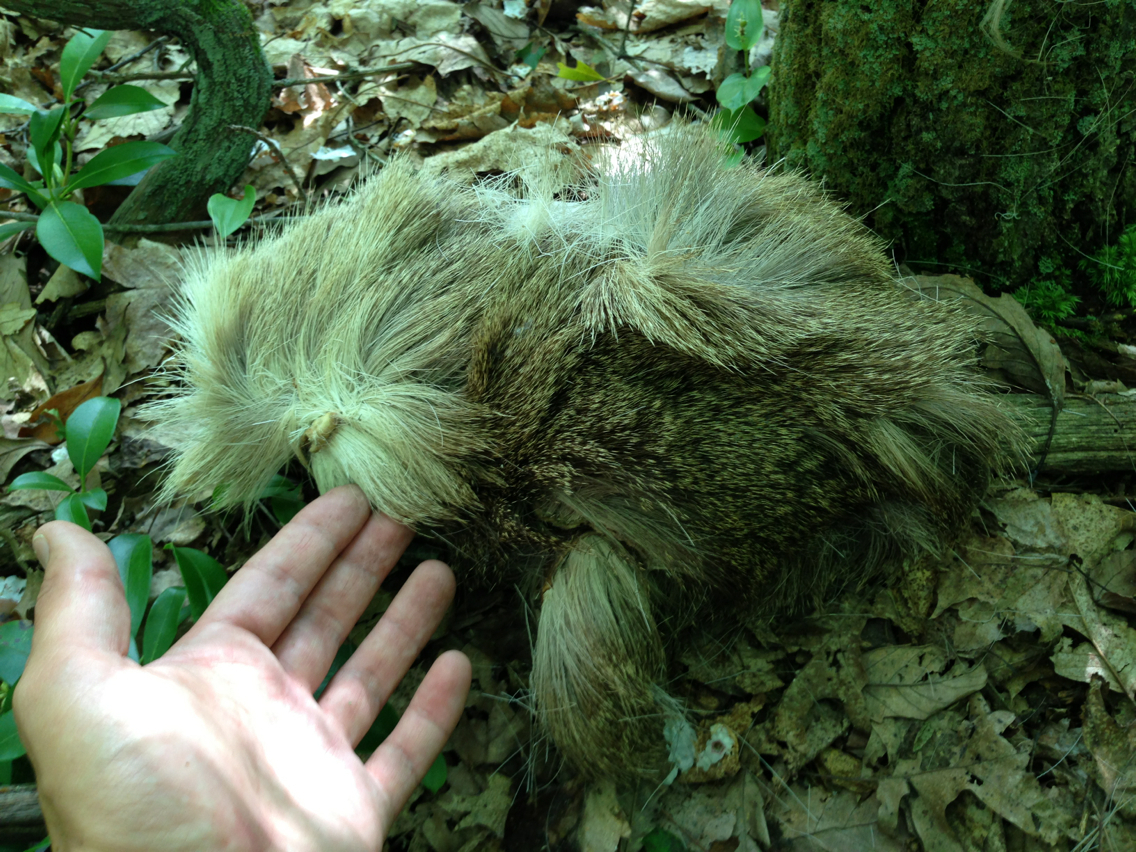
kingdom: Animalia
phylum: Chordata
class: Mammalia
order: Artiodactyla
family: Cervidae
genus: Odocoileus
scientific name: Odocoileus virginianus
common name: White-tailed deer
